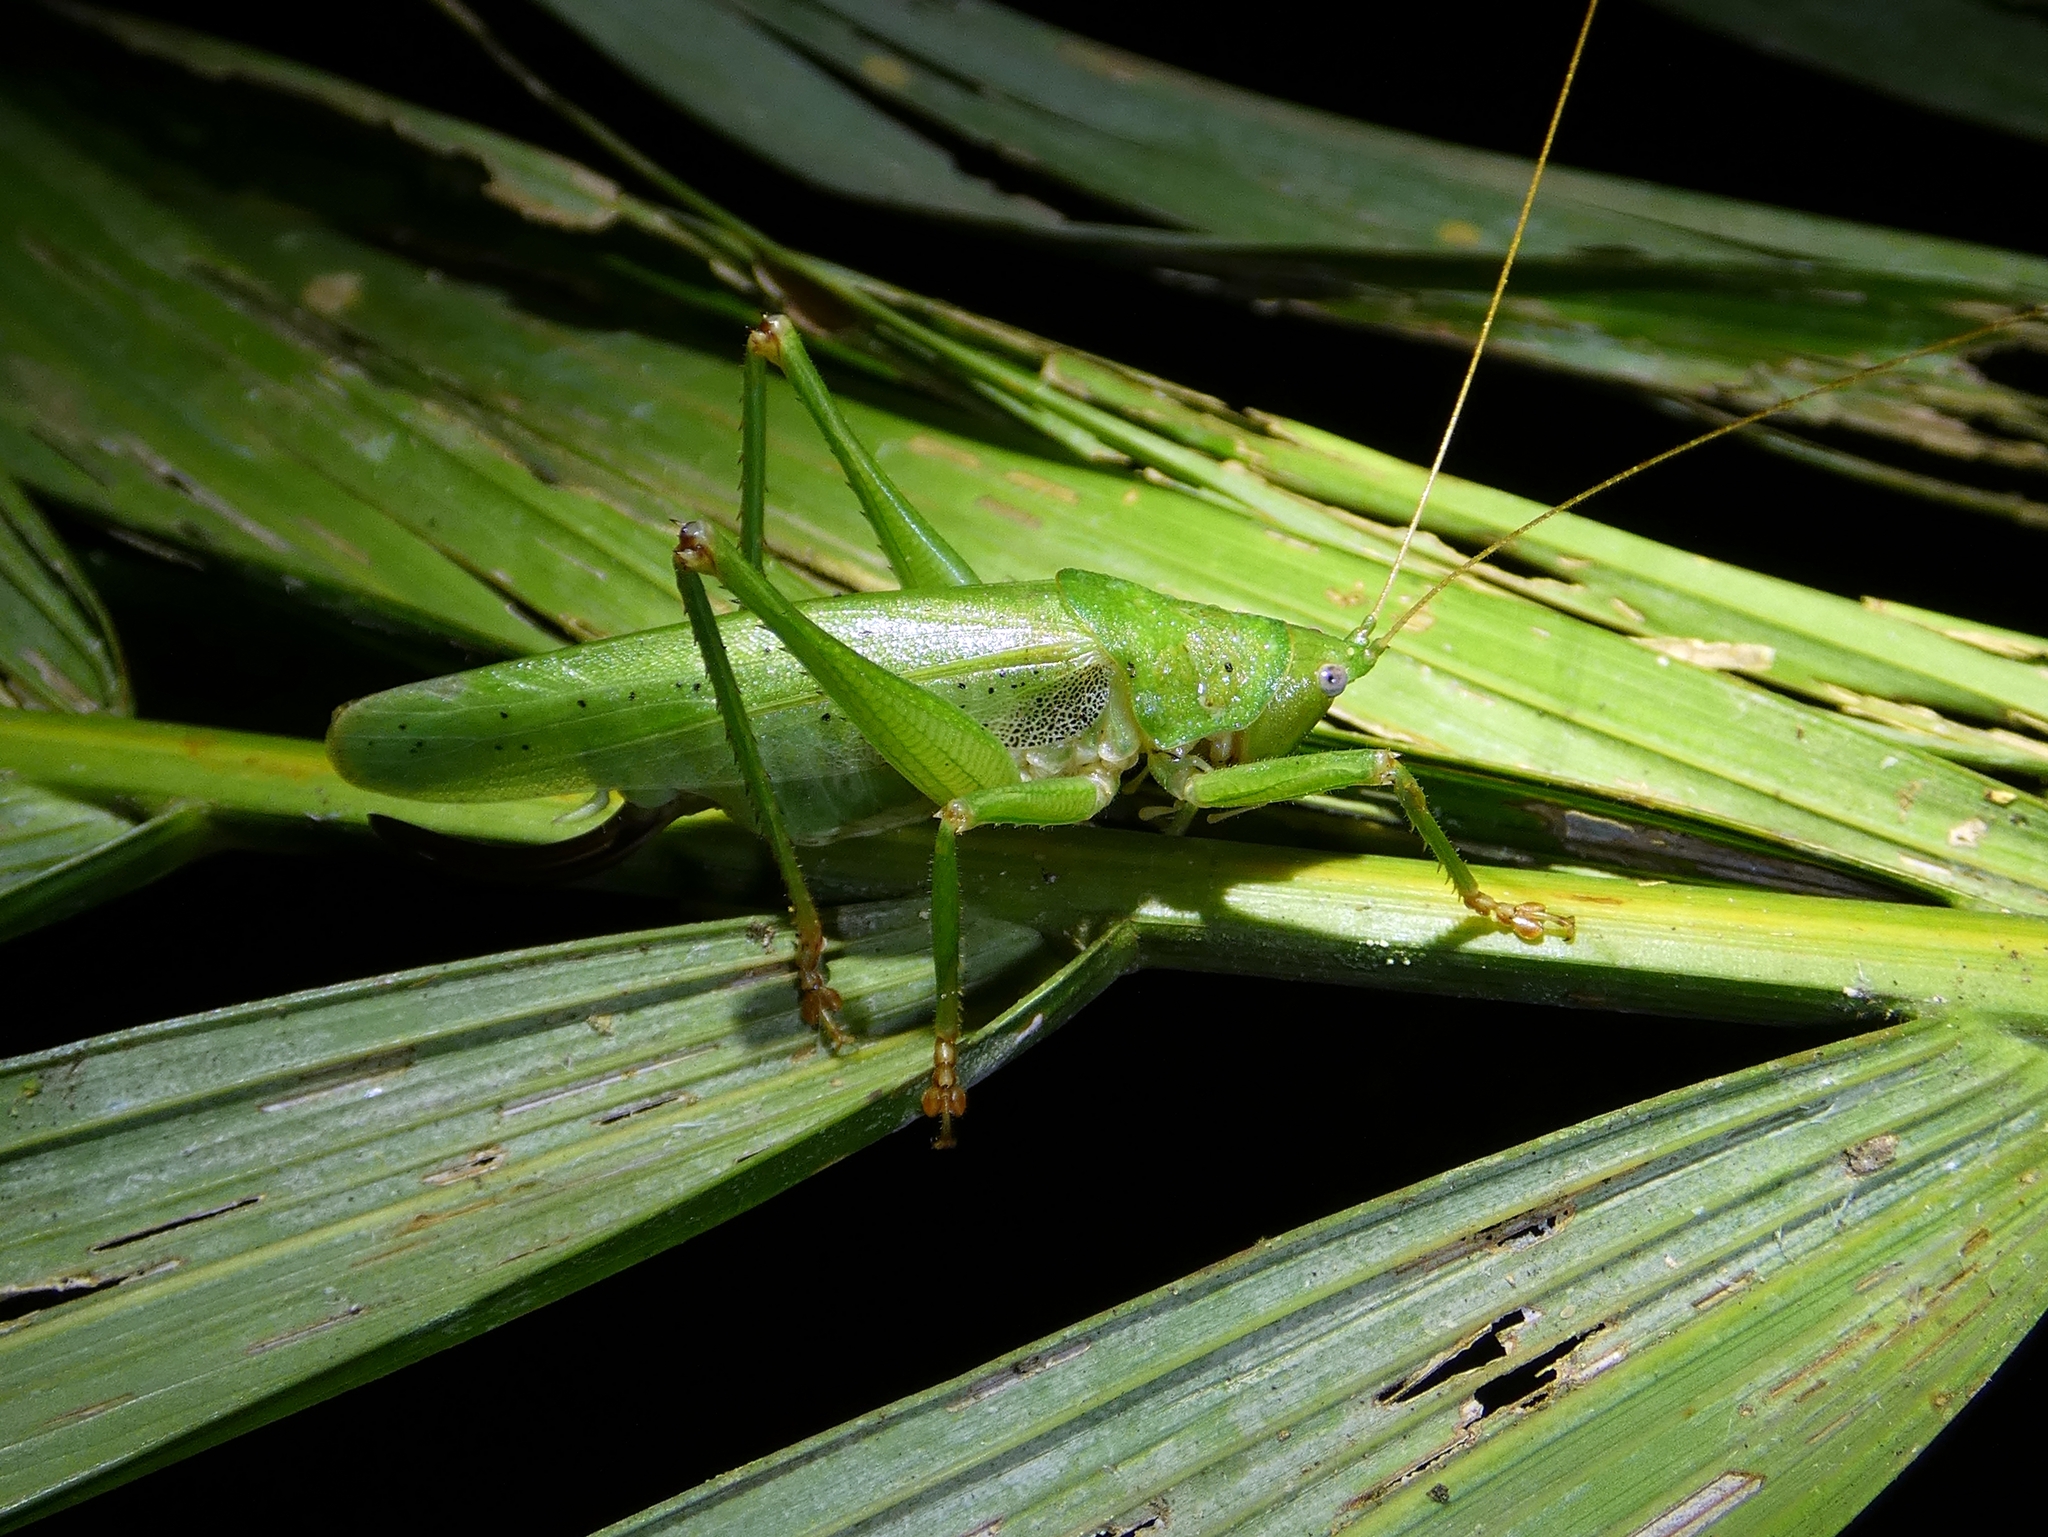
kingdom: Animalia
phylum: Arthropoda
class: Insecta
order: Orthoptera
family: Tettigoniidae
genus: Austrosalomona
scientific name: Austrosalomona destructor
